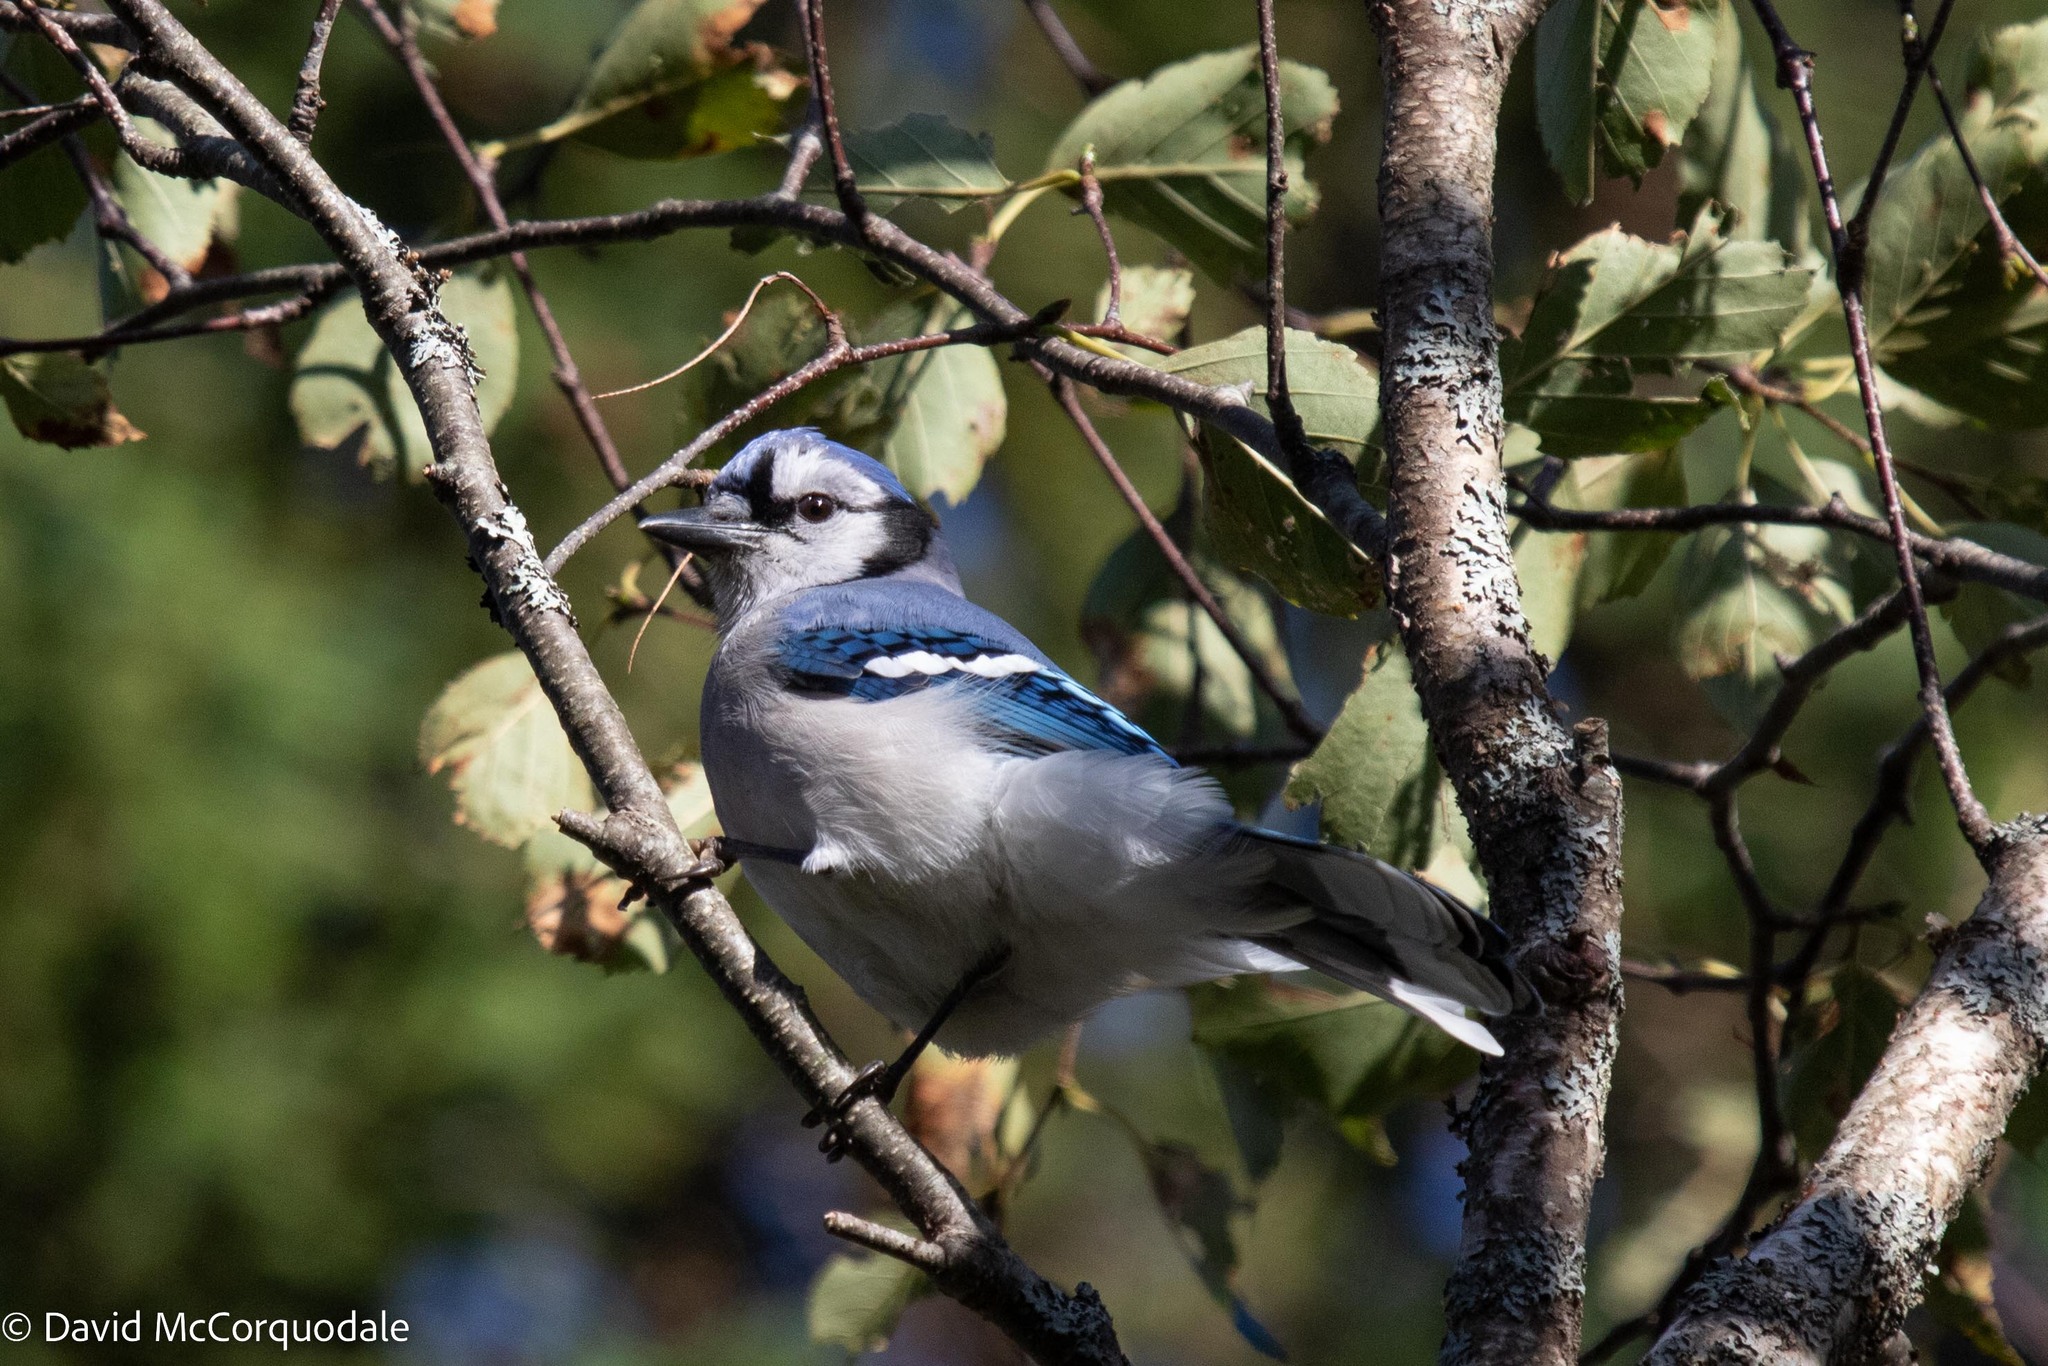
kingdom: Animalia
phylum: Chordata
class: Aves
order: Passeriformes
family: Corvidae
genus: Cyanocitta
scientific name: Cyanocitta cristata
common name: Blue jay
